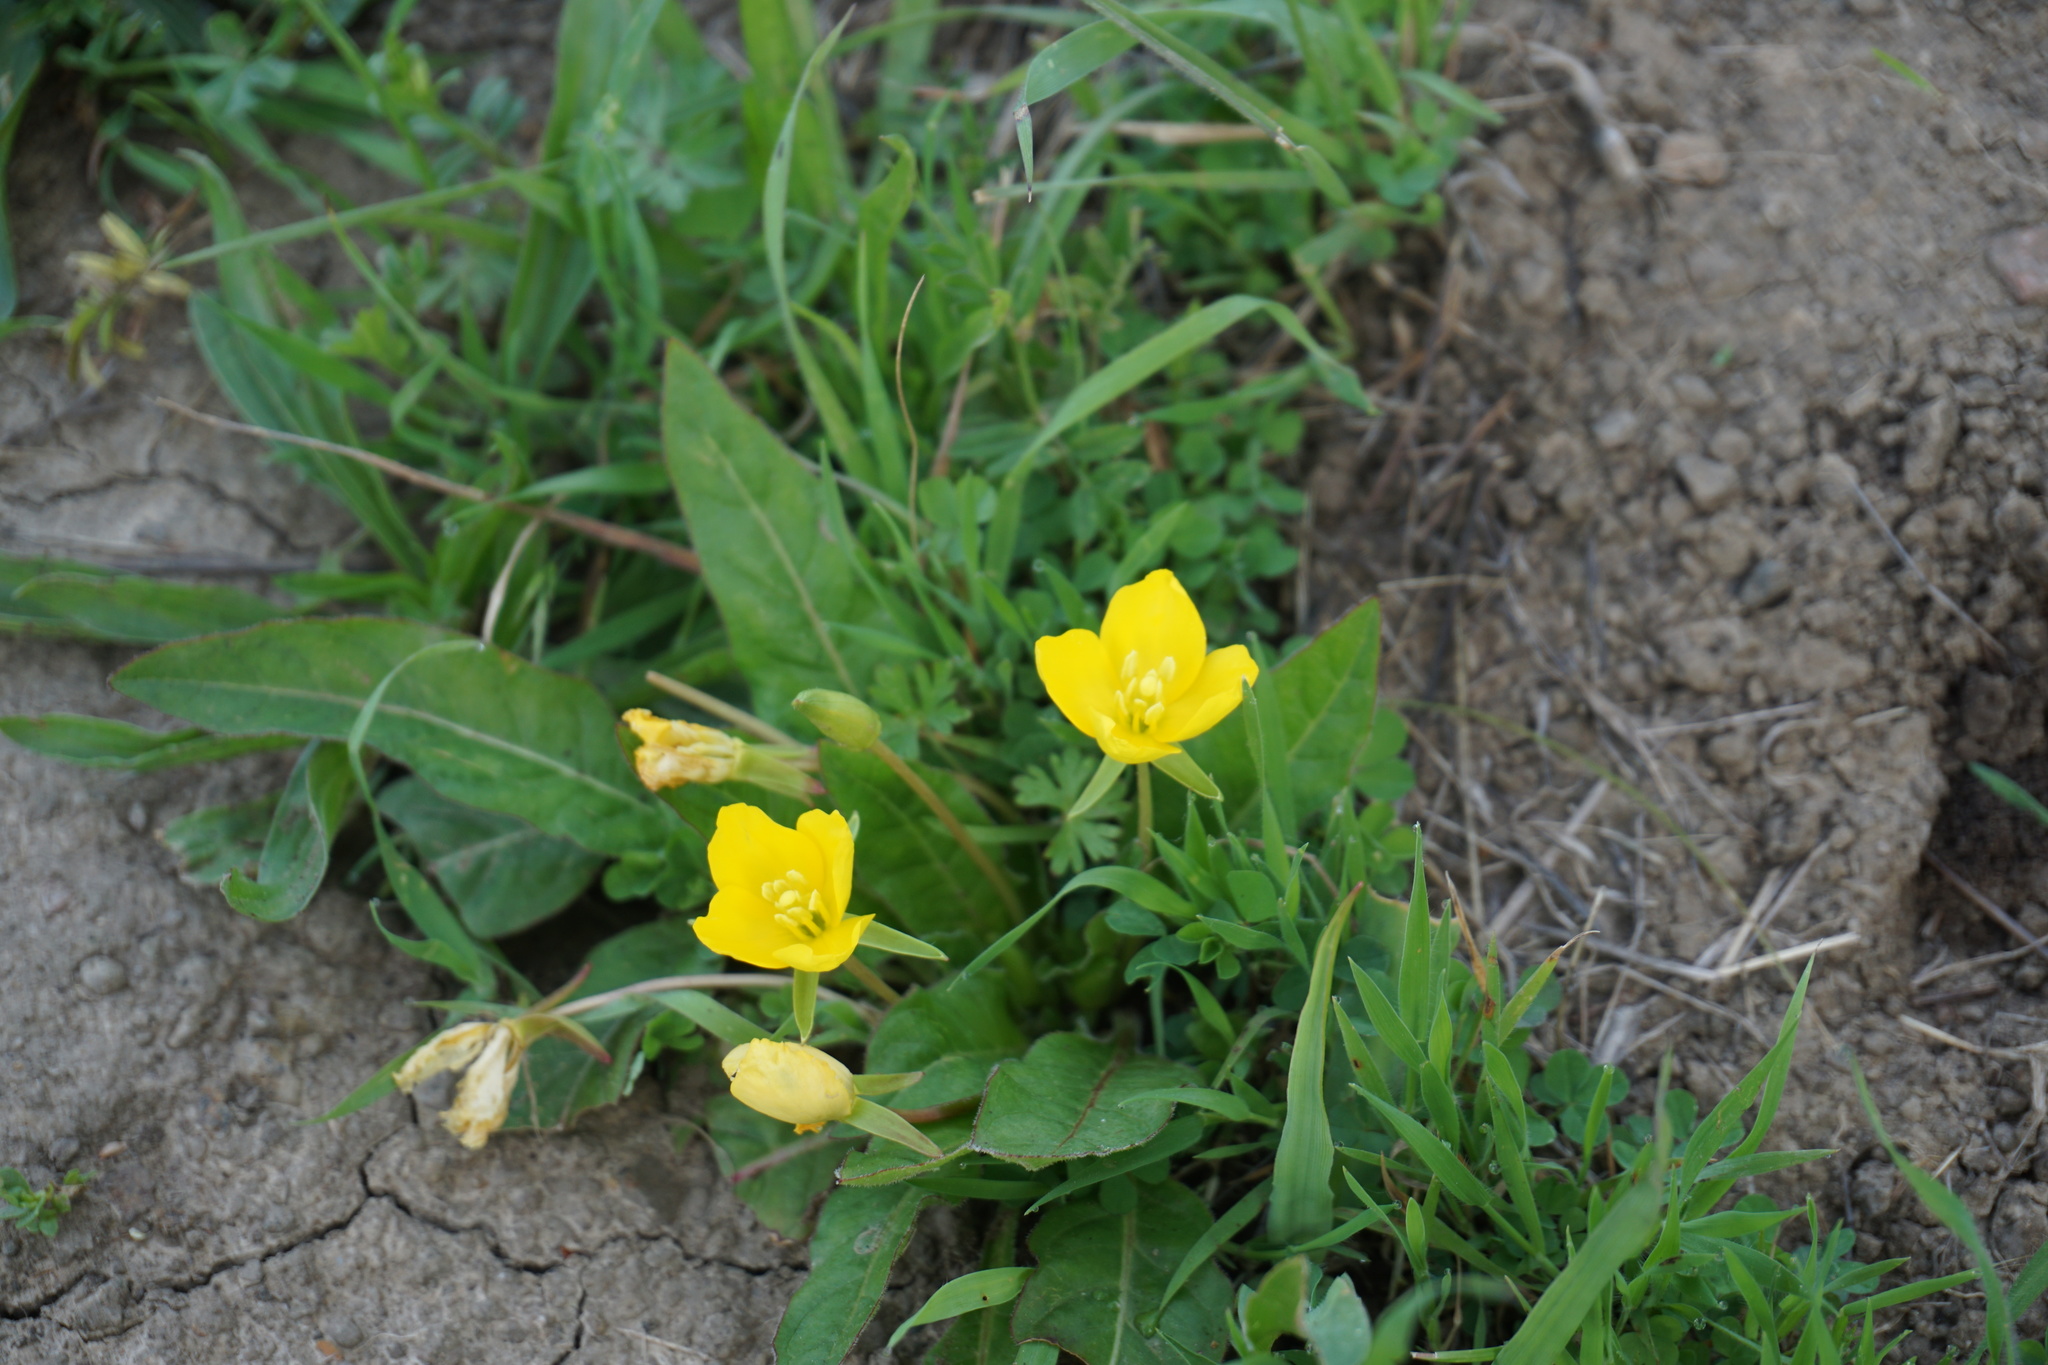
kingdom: Plantae
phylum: Tracheophyta
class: Magnoliopsida
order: Myrtales
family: Onagraceae
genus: Taraxia
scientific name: Taraxia ovata
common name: Goldeneggs
